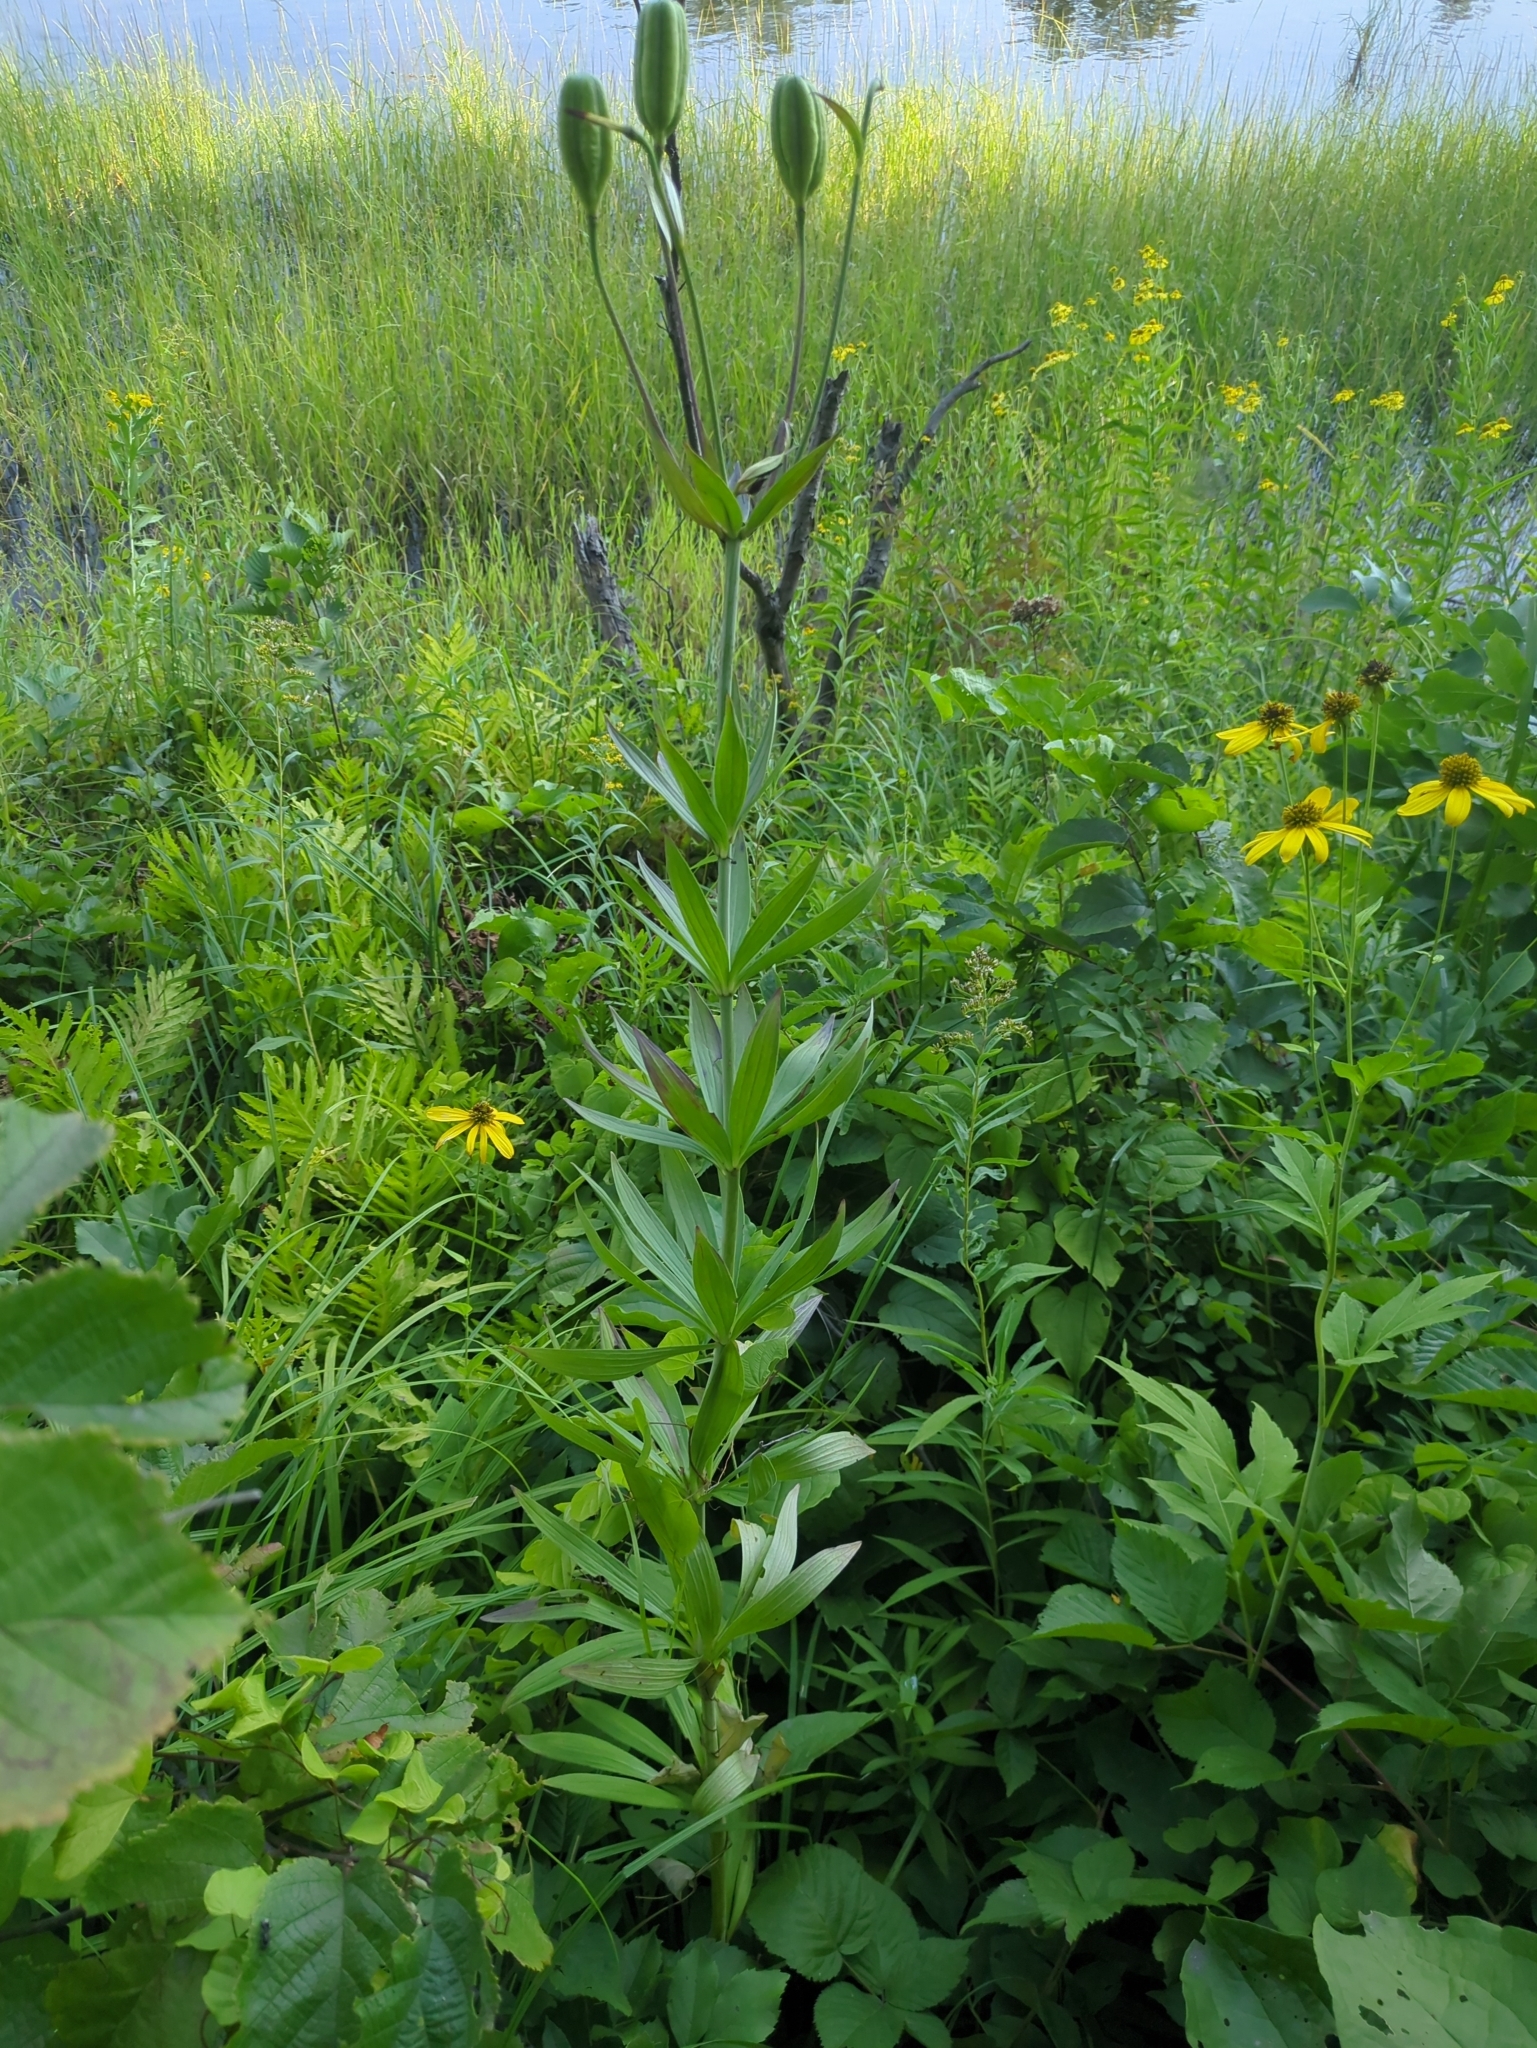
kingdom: Plantae
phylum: Tracheophyta
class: Liliopsida
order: Liliales
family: Liliaceae
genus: Lilium
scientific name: Lilium michiganense
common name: Michigan lily
